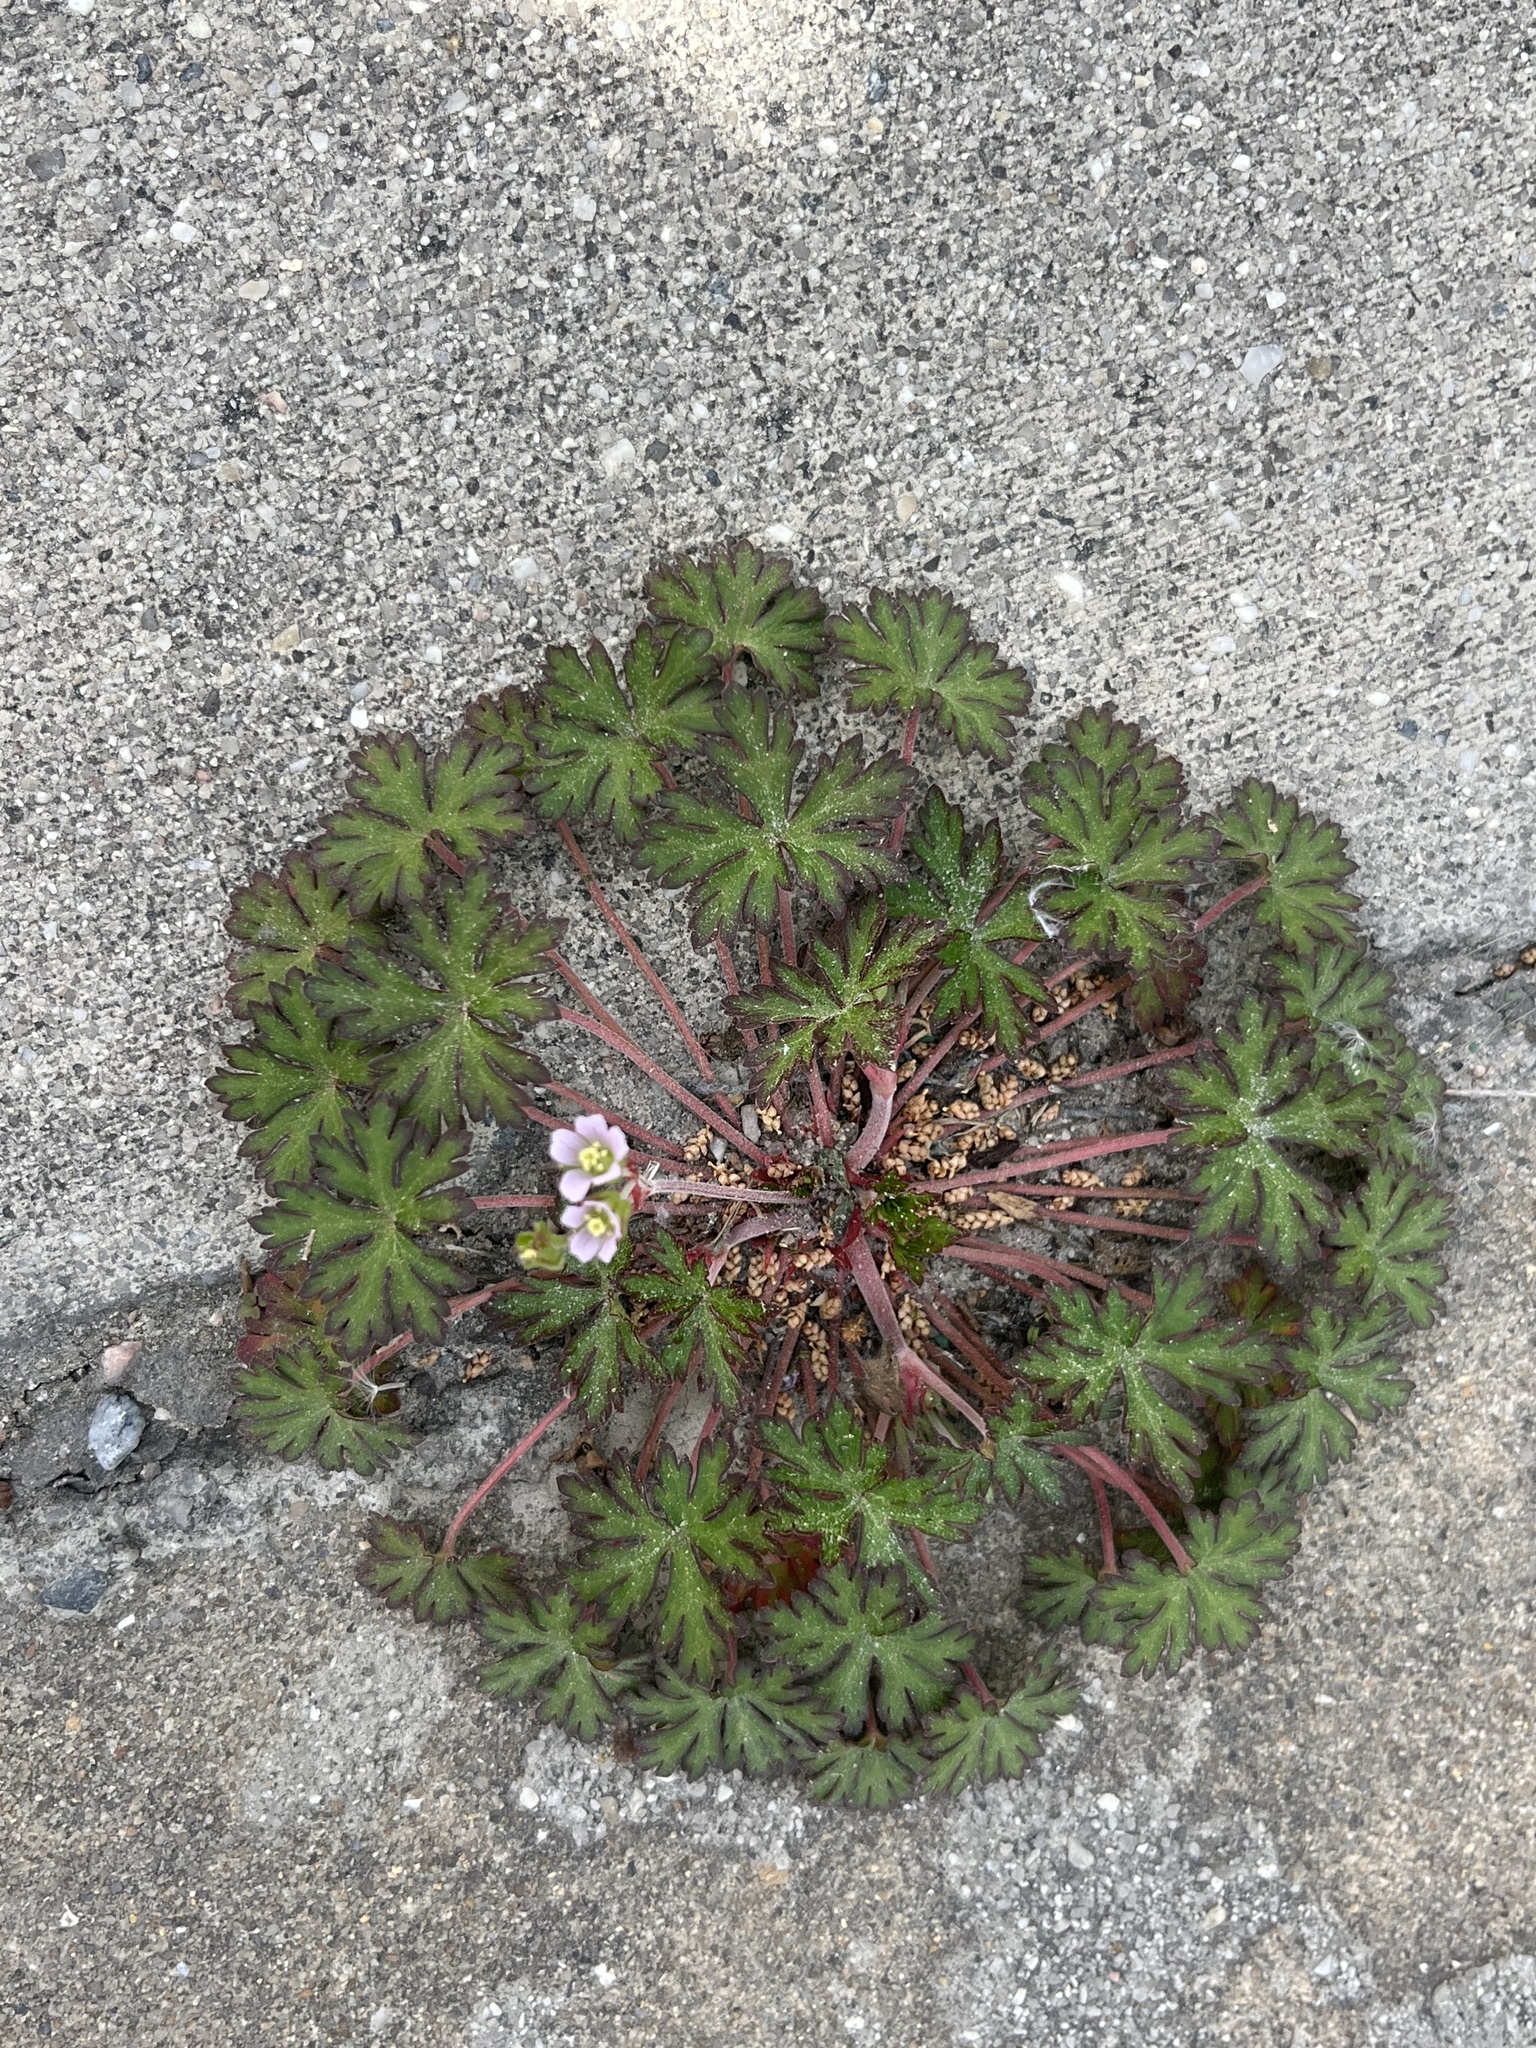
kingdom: Plantae
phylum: Tracheophyta
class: Magnoliopsida
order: Geraniales
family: Geraniaceae
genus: Geranium
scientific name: Geranium carolinianum
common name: Carolina crane's-bill
